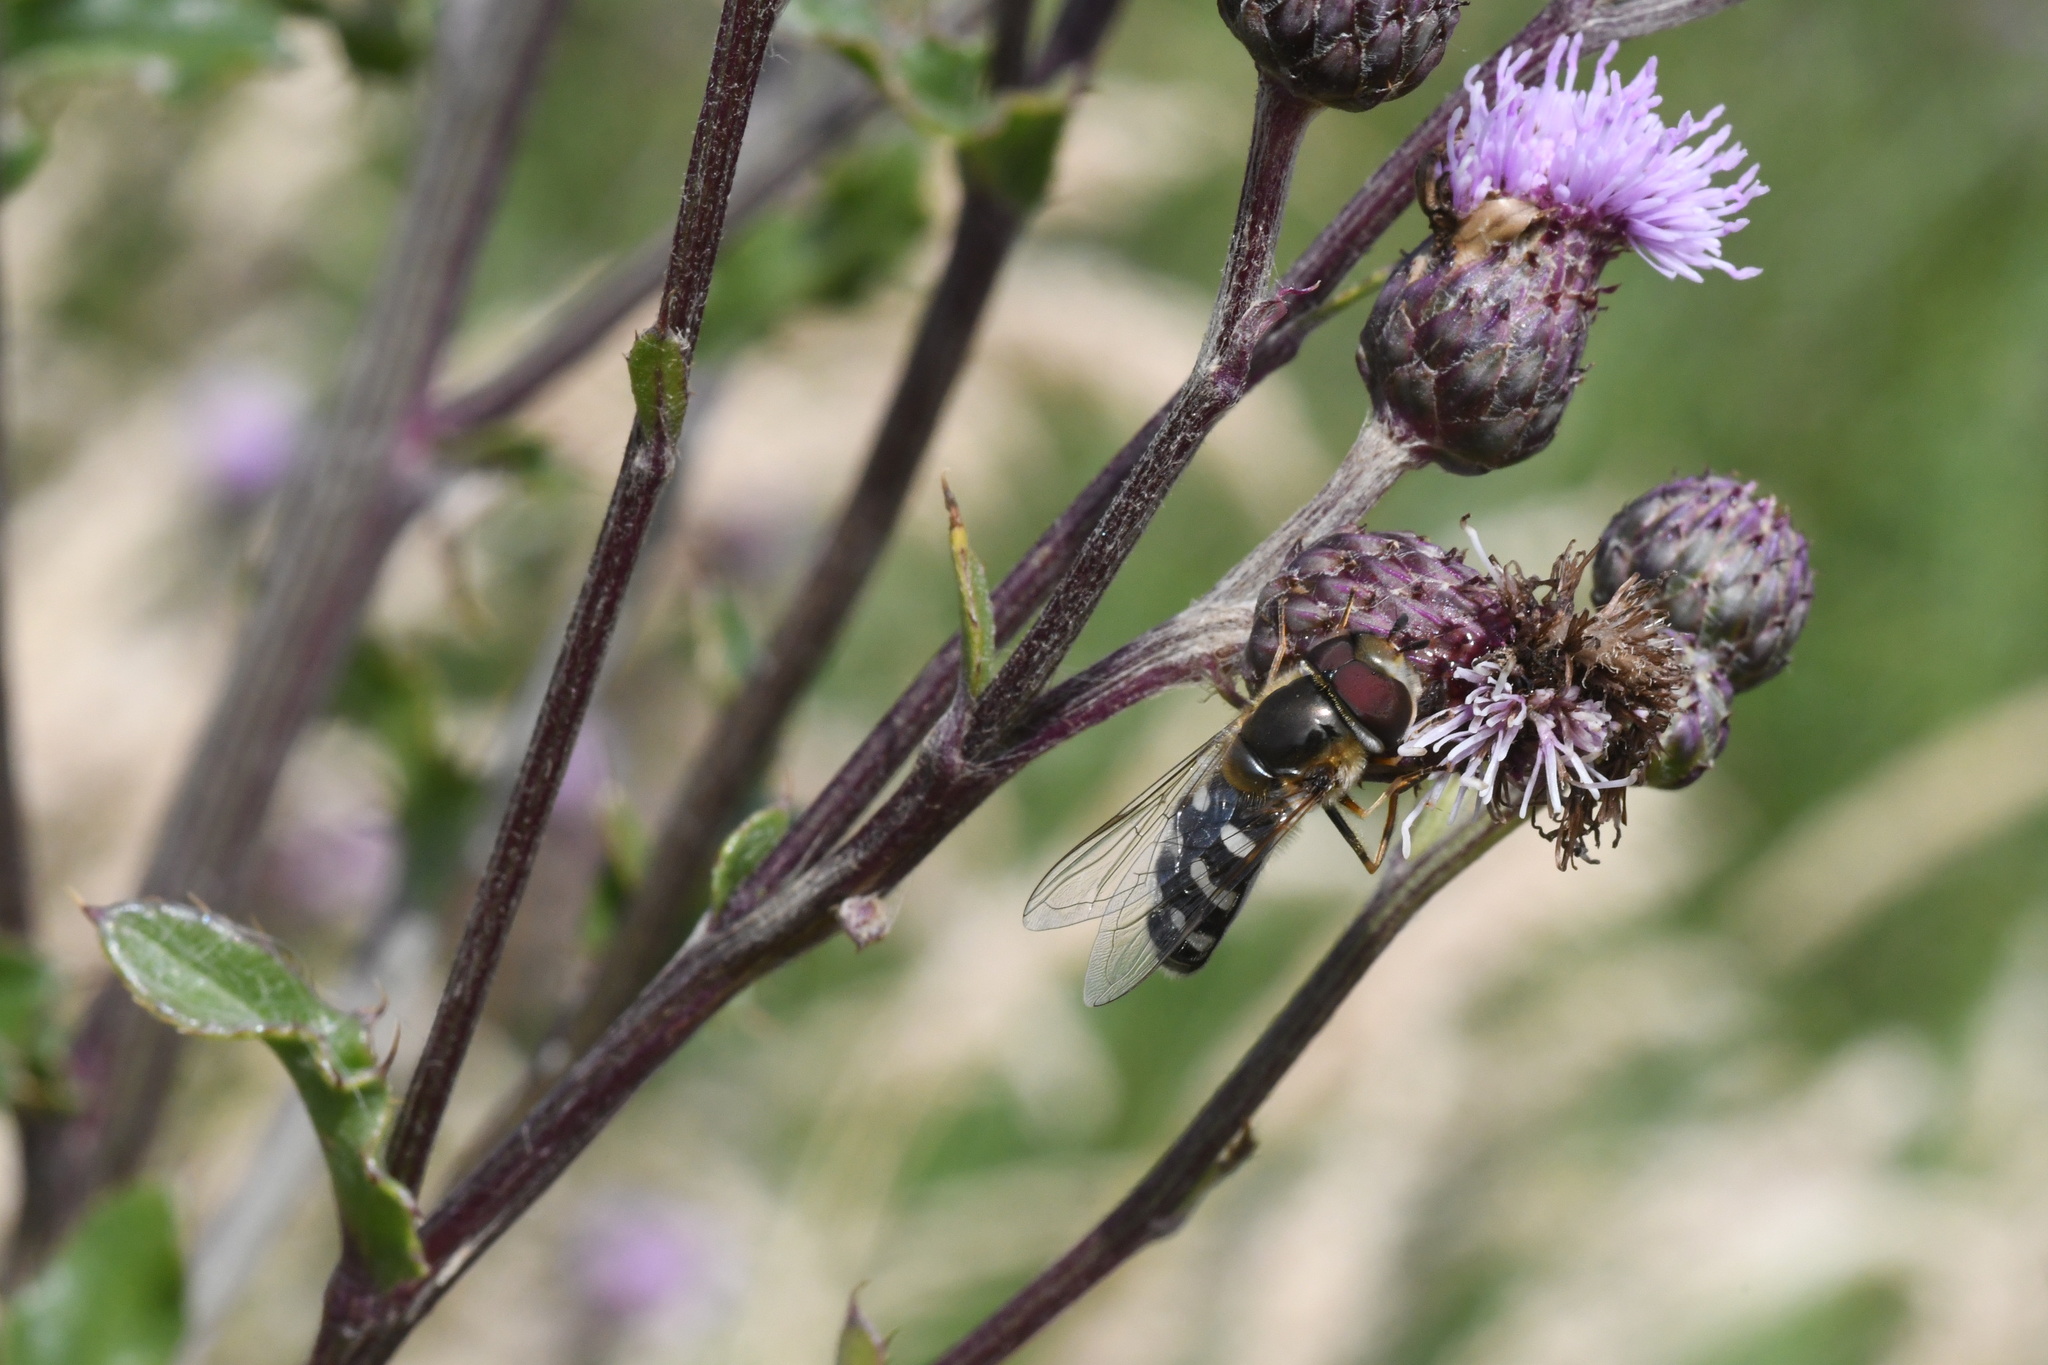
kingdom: Animalia
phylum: Arthropoda
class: Insecta
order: Diptera
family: Syrphidae
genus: Scaeva
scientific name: Scaeva pyrastri
